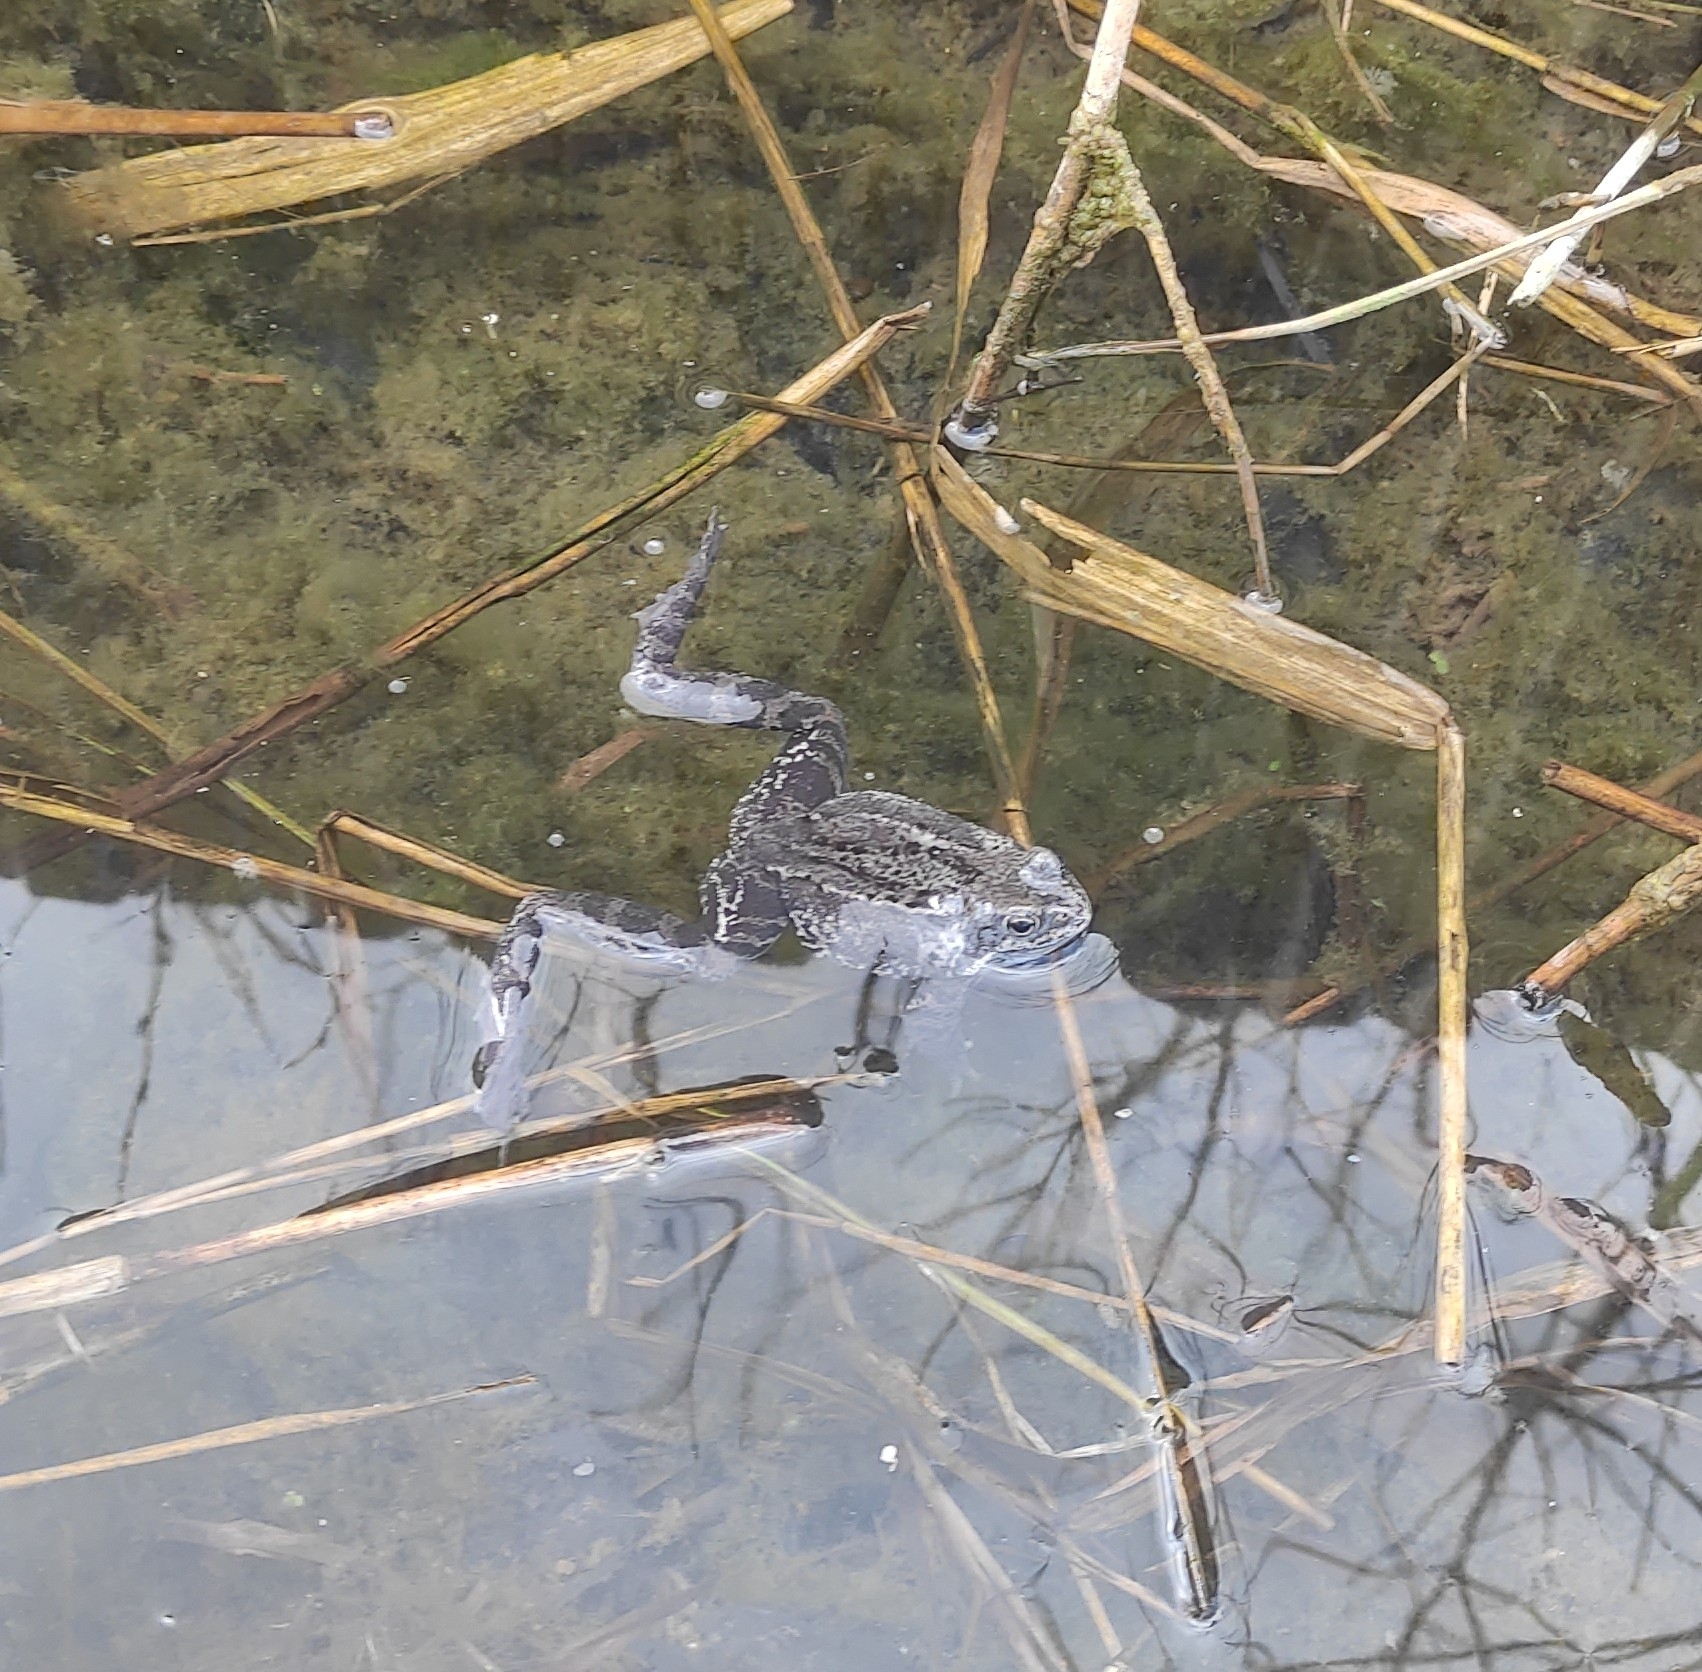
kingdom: Animalia
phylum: Chordata
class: Amphibia
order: Anura
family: Ranidae
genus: Rana
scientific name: Rana temporaria
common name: Common frog
